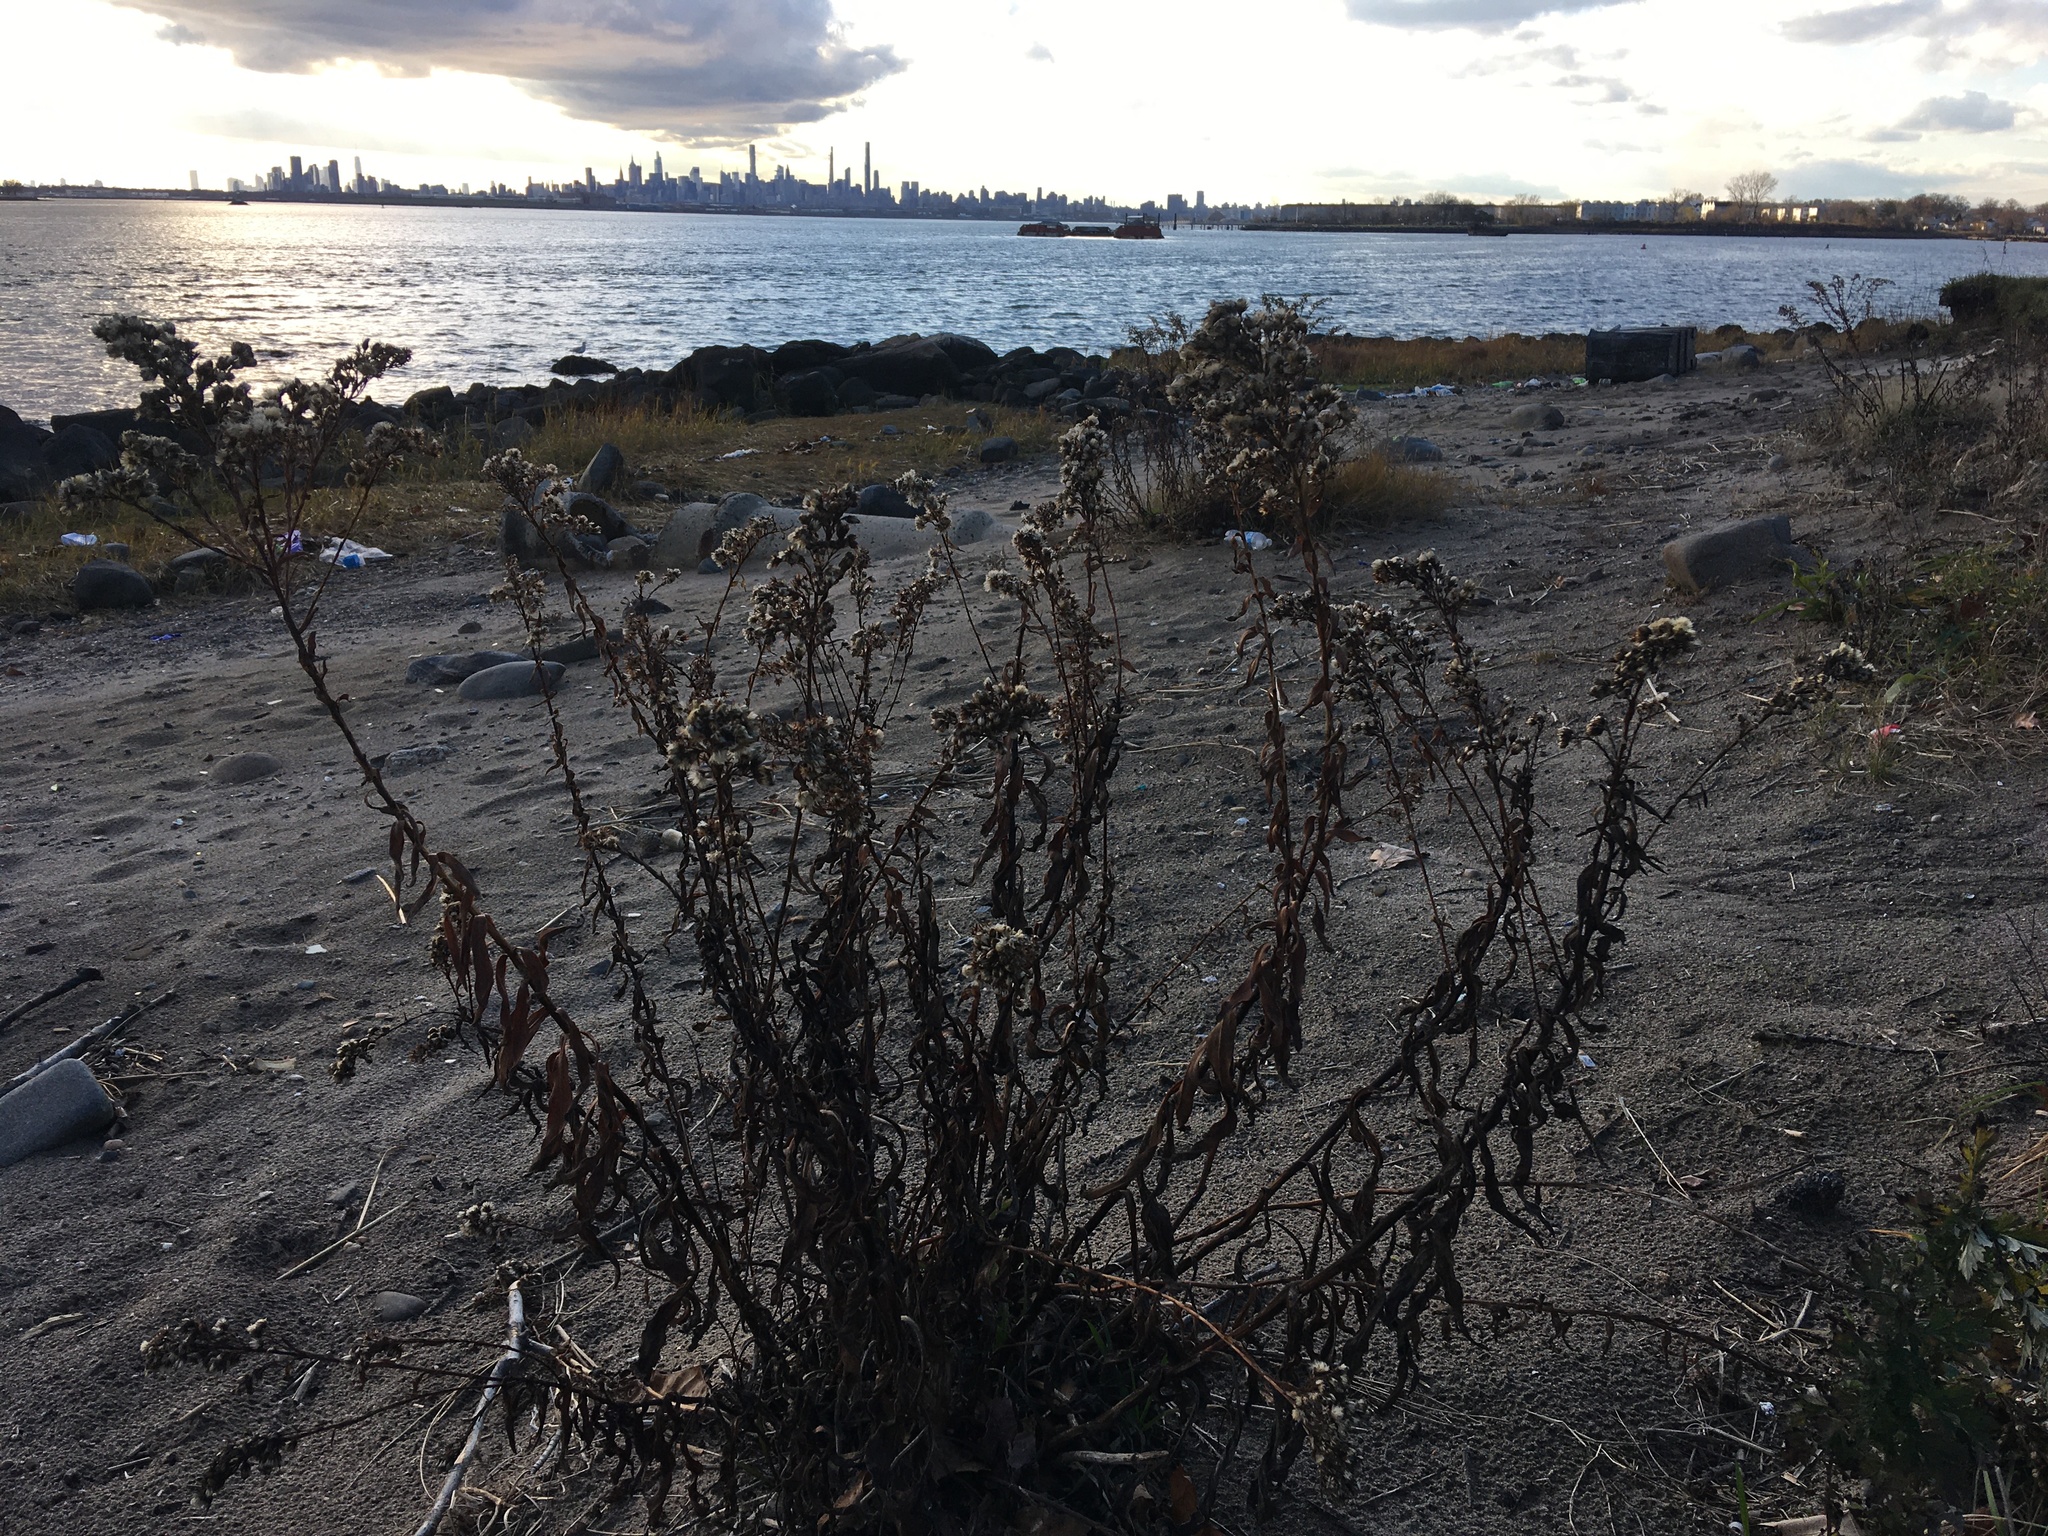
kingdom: Plantae
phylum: Tracheophyta
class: Magnoliopsida
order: Asterales
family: Asteraceae
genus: Solidago
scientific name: Solidago sempervirens
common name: Salt-marsh goldenrod
